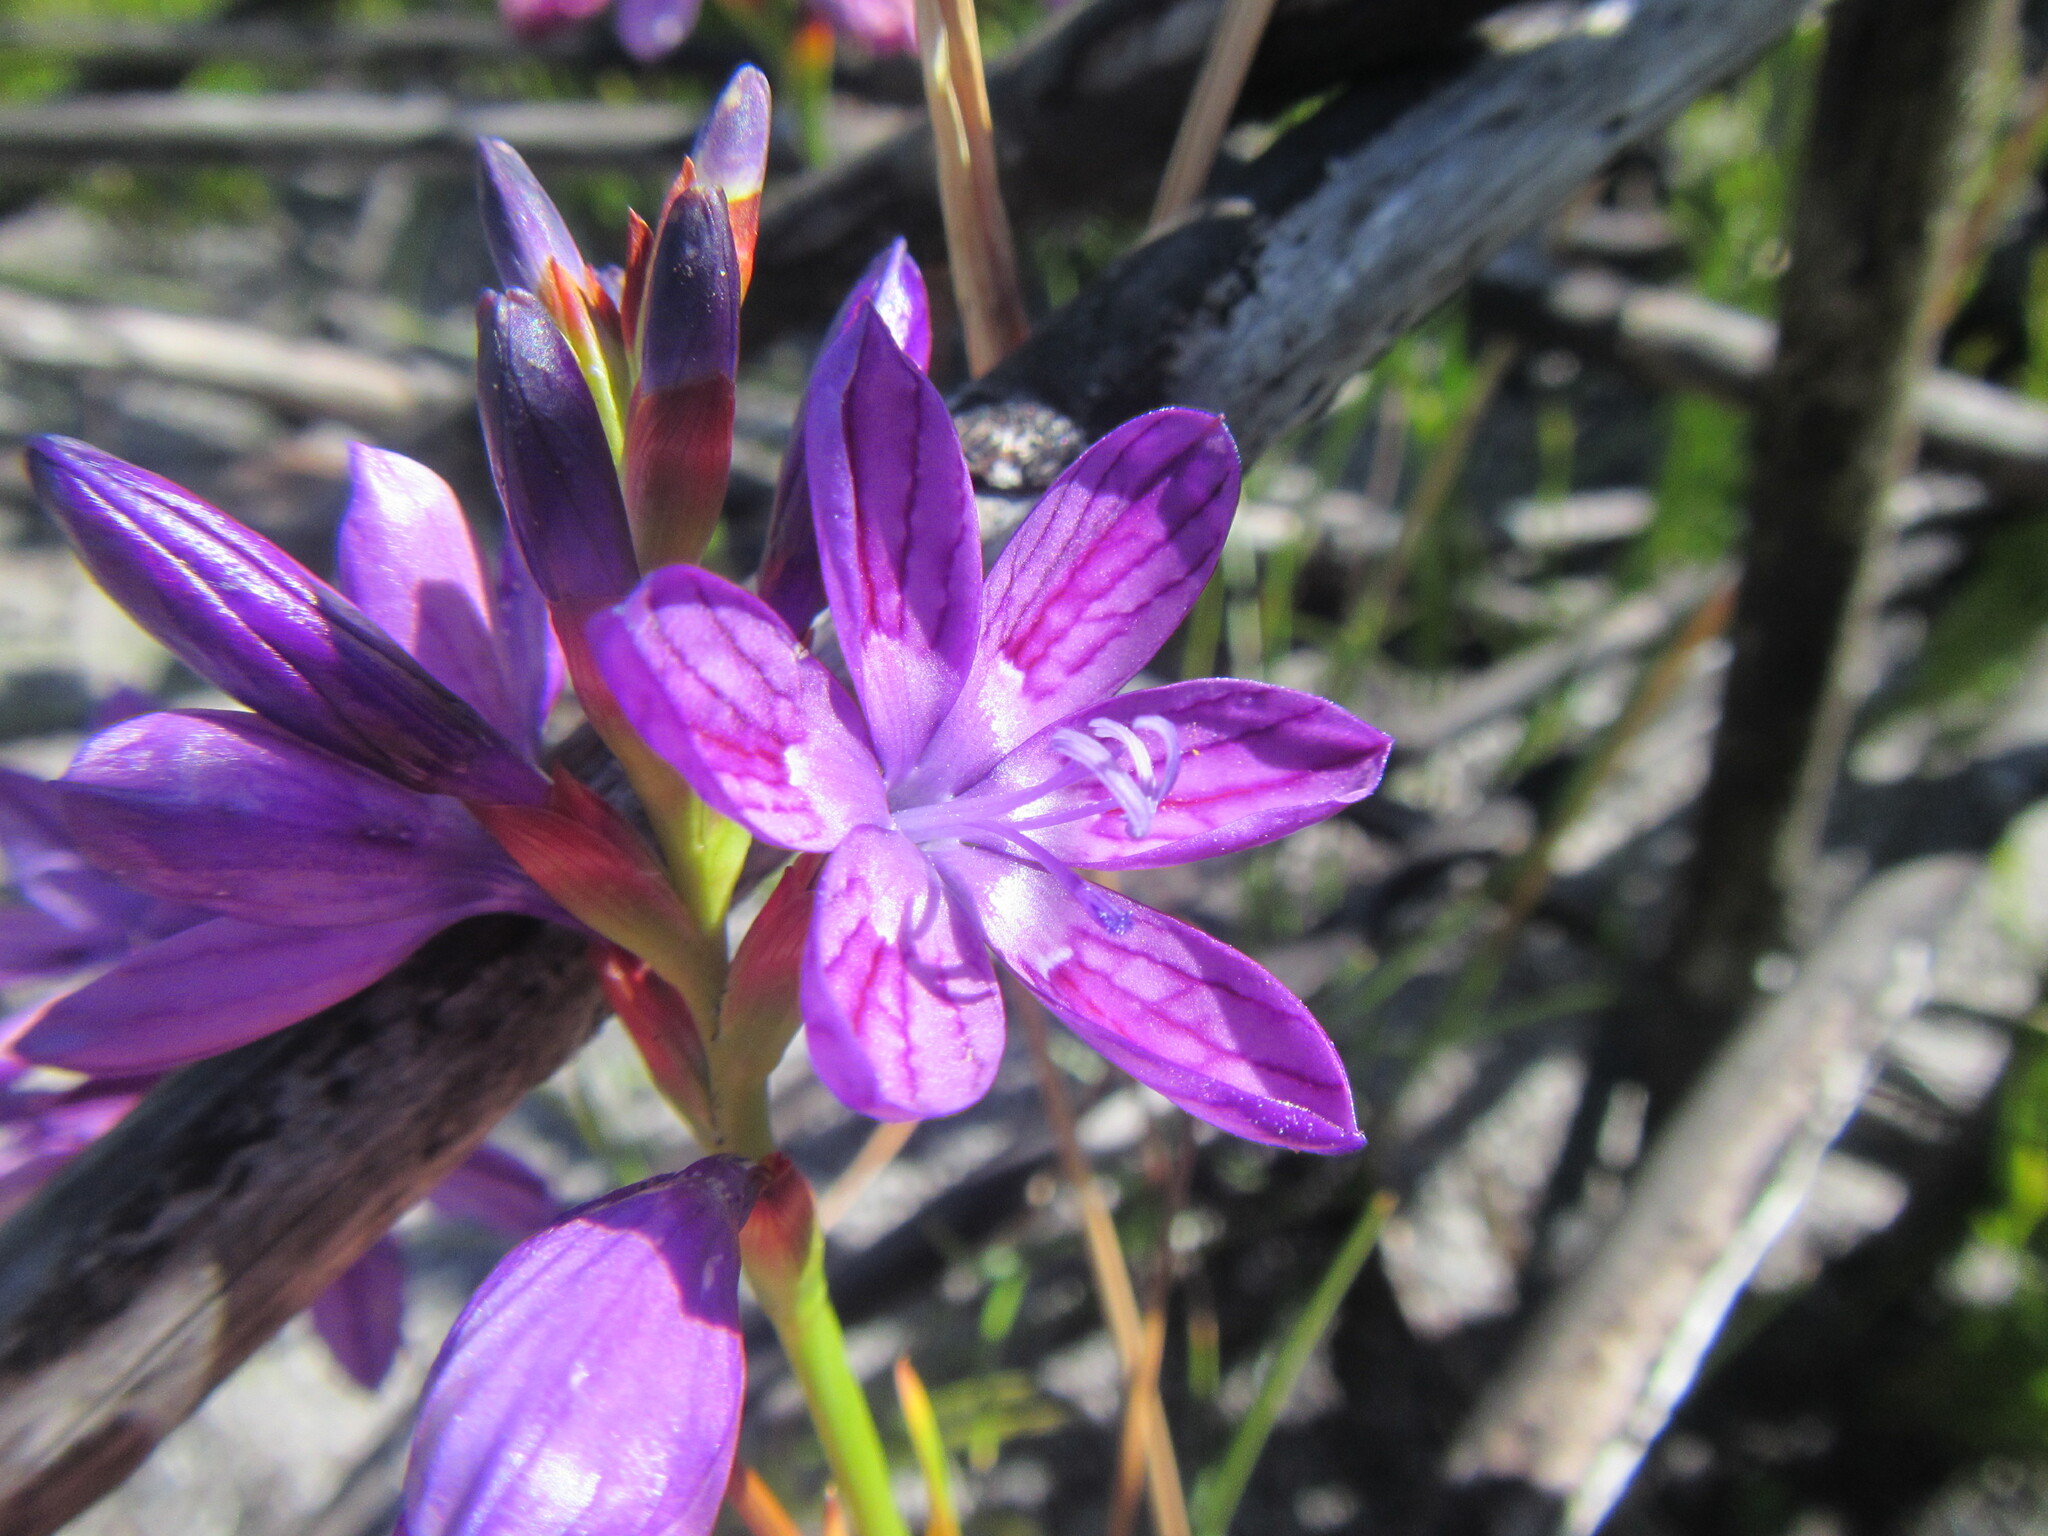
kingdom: Plantae
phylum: Tracheophyta
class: Liliopsida
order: Asparagales
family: Iridaceae
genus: Thereianthus
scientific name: Thereianthus bracteolatus
